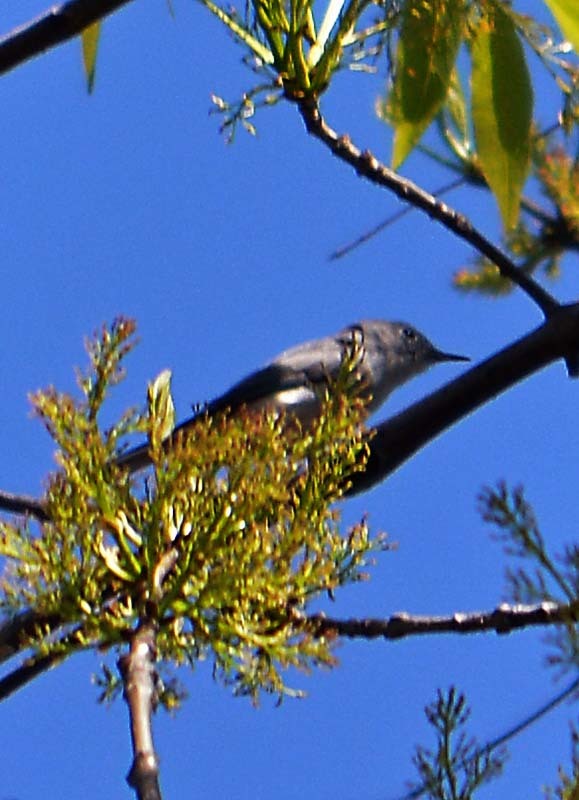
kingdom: Animalia
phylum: Chordata
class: Aves
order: Passeriformes
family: Polioptilidae
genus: Polioptila
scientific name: Polioptila caerulea
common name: Blue-gray gnatcatcher
